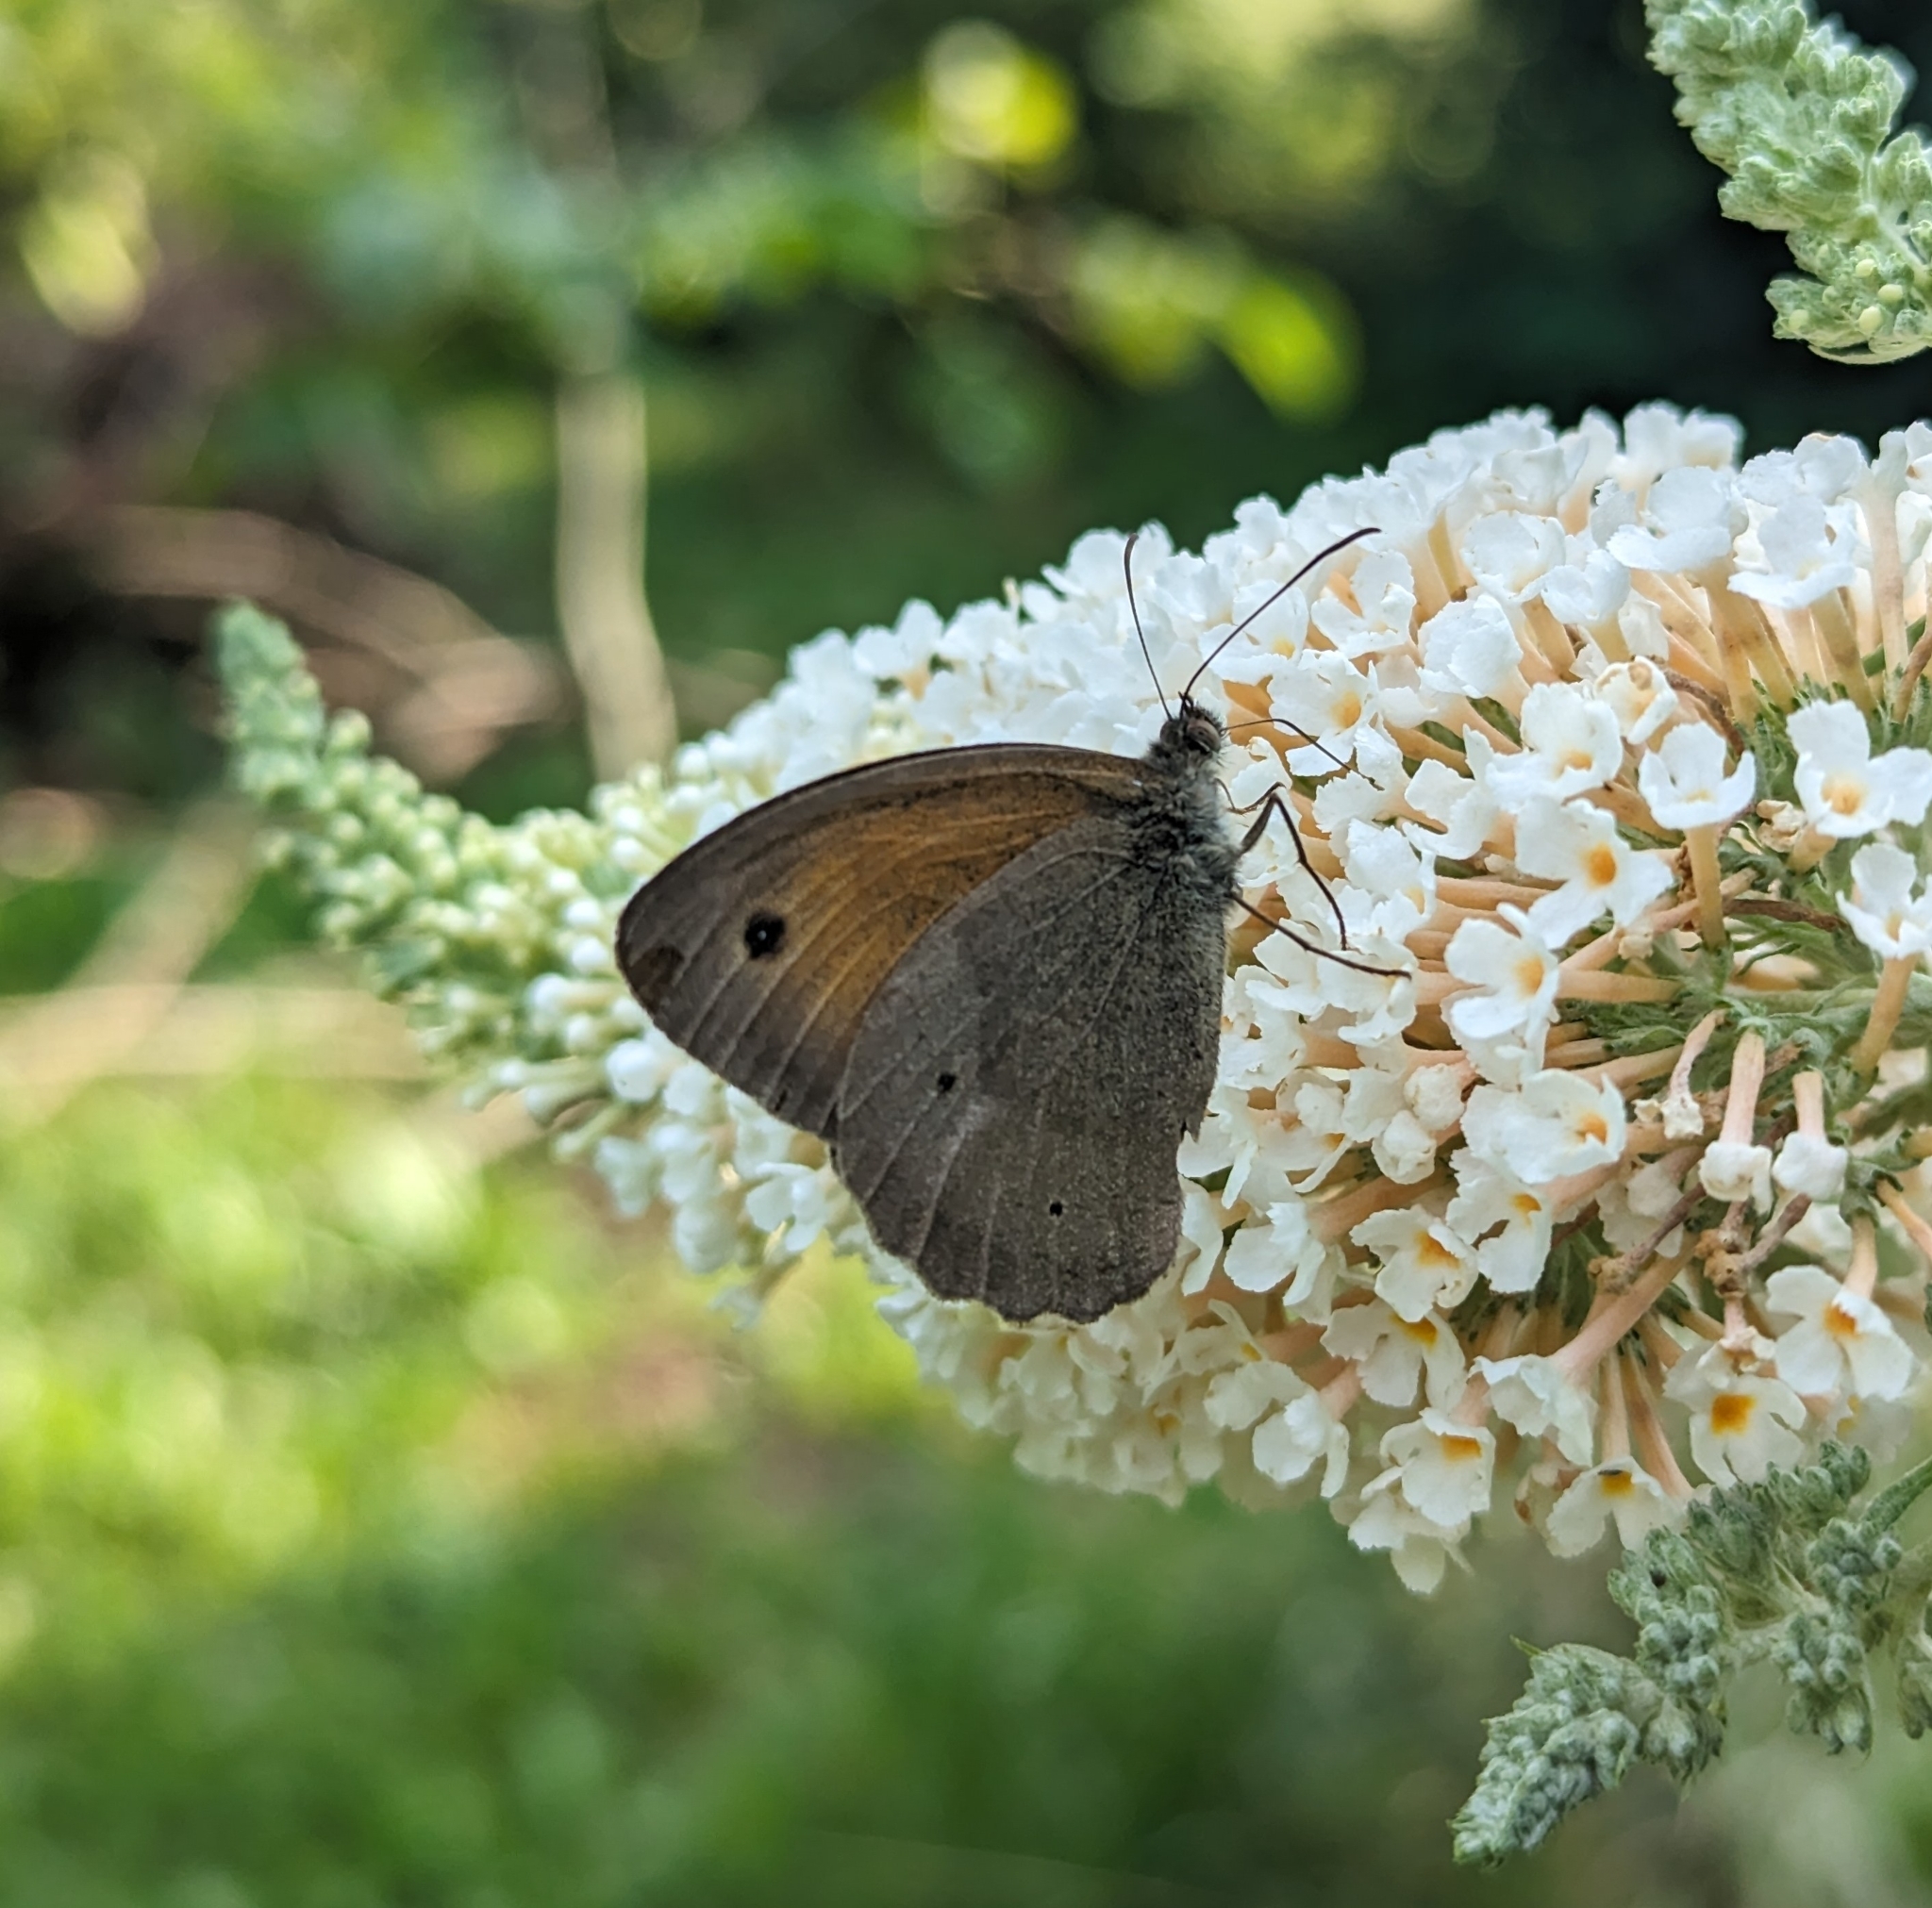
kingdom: Animalia
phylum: Arthropoda
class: Insecta
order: Lepidoptera
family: Nymphalidae
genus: Maniola
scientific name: Maniola jurtina
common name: Meadow brown
